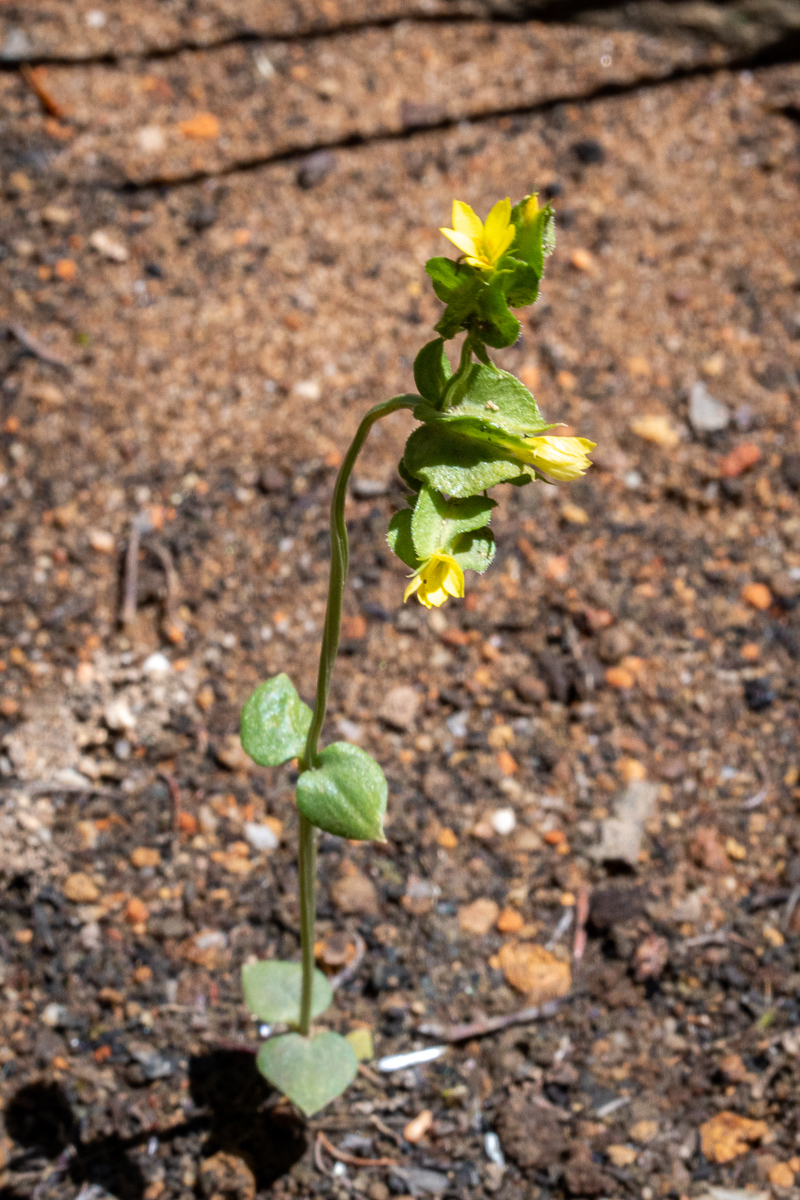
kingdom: Plantae
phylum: Tracheophyta
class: Magnoliopsida
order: Gentianales
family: Gentianaceae
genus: Sebaea
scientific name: Sebaea micrantha
